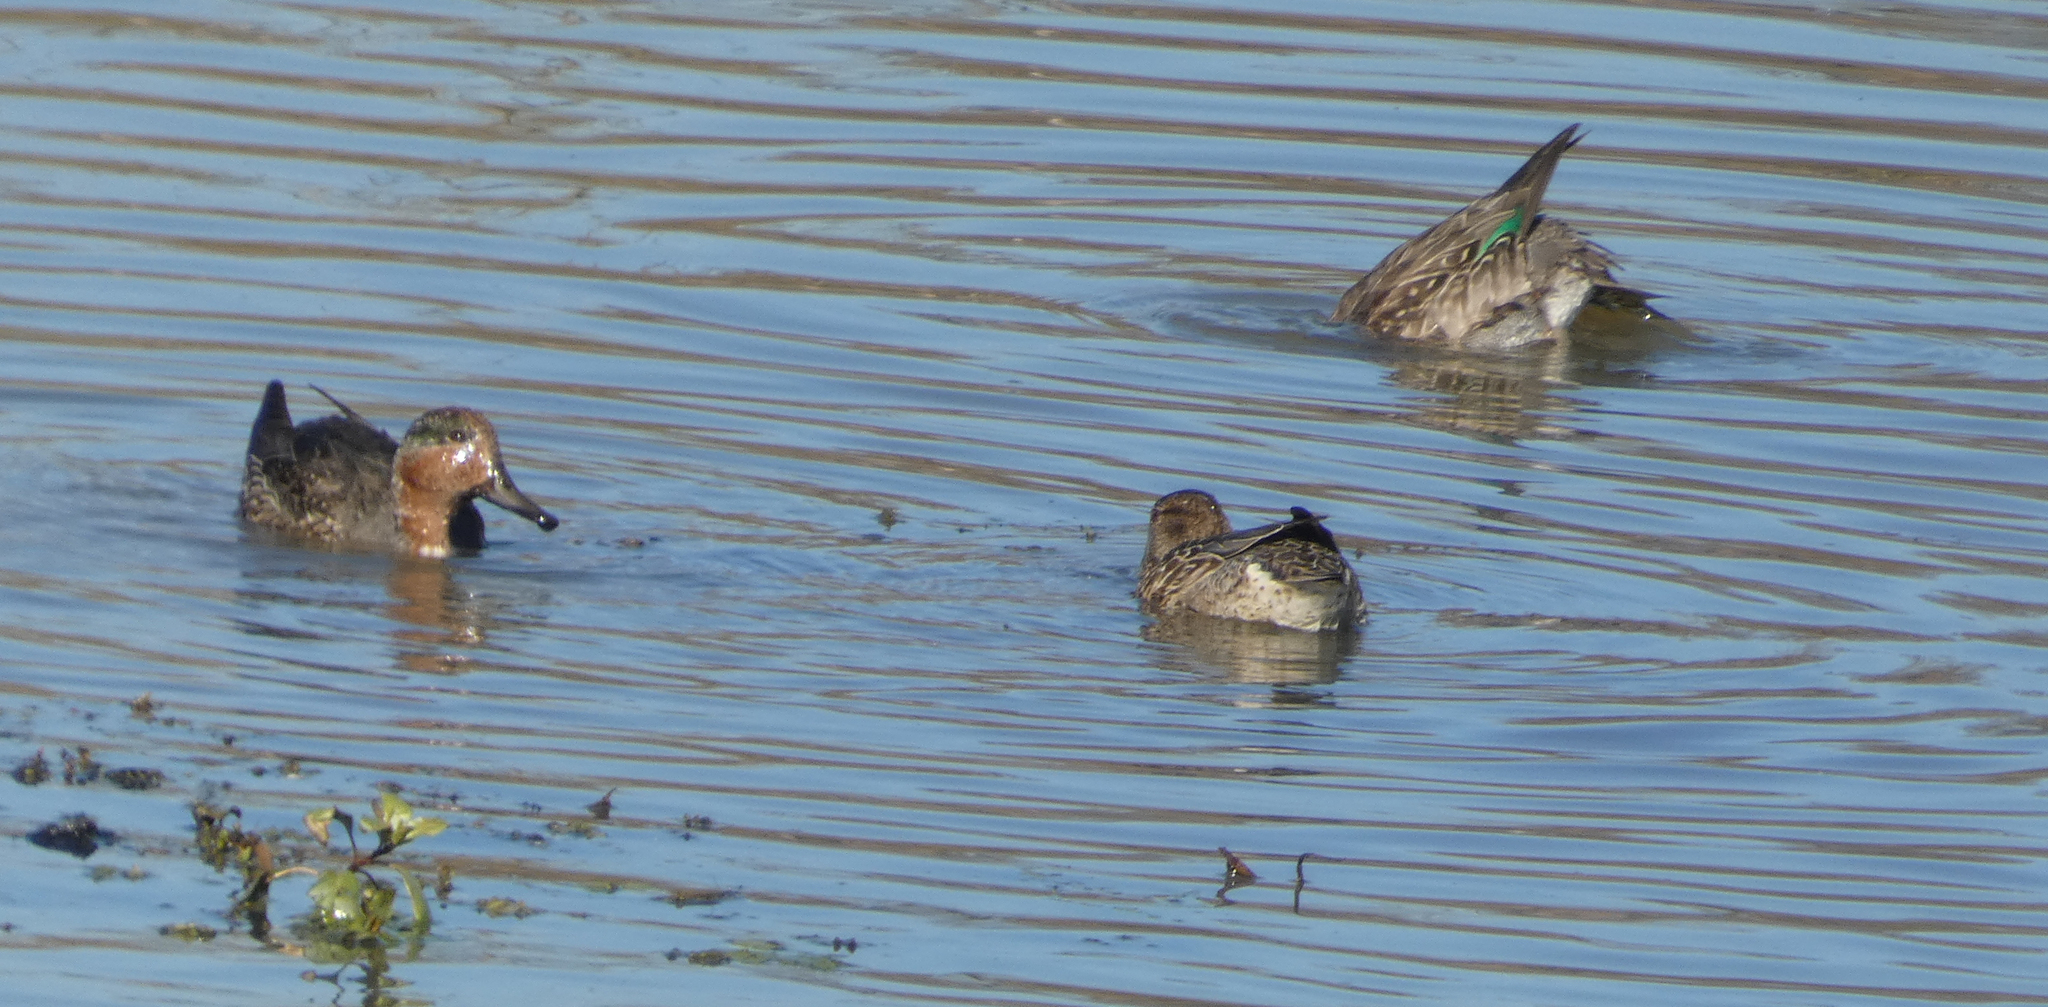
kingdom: Animalia
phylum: Chordata
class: Aves
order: Anseriformes
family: Anatidae
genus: Anas
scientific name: Anas crecca
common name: Eurasian teal
